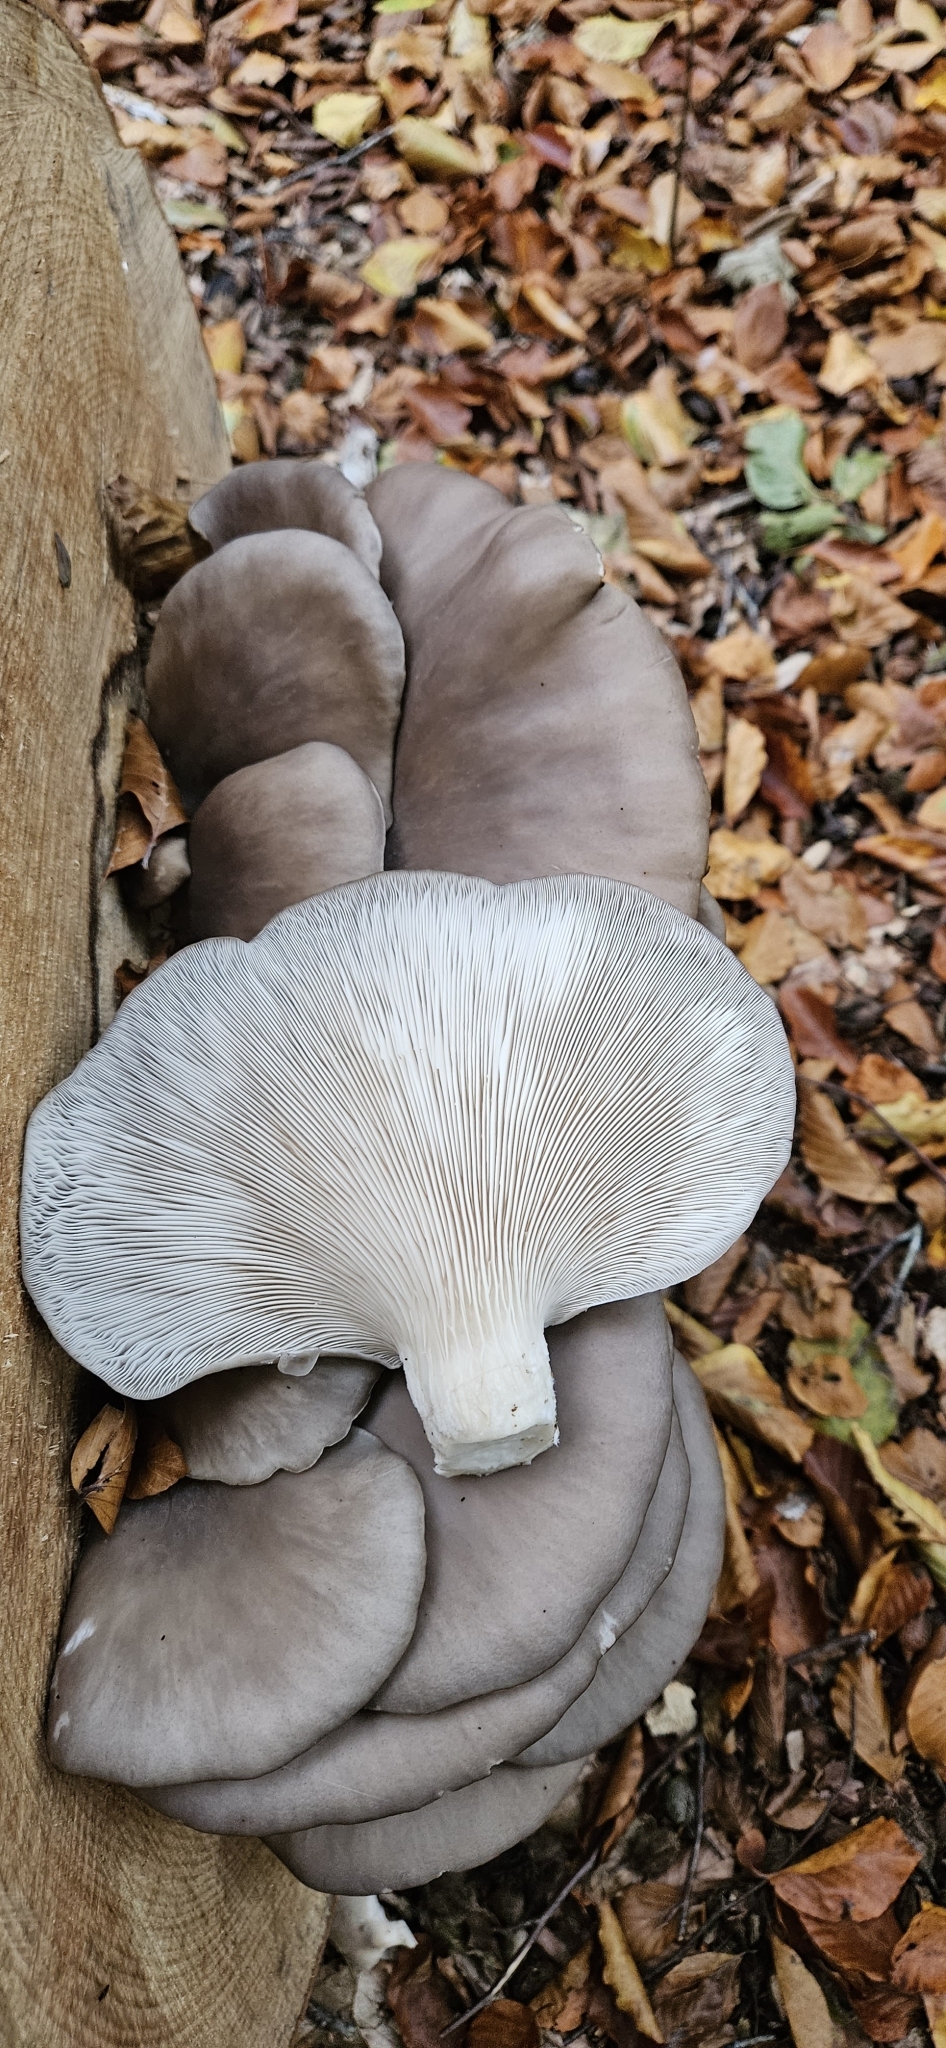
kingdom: Fungi
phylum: Basidiomycota
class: Agaricomycetes
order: Agaricales
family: Pleurotaceae
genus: Pleurotus
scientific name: Pleurotus ostreatus
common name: Oyster mushroom
